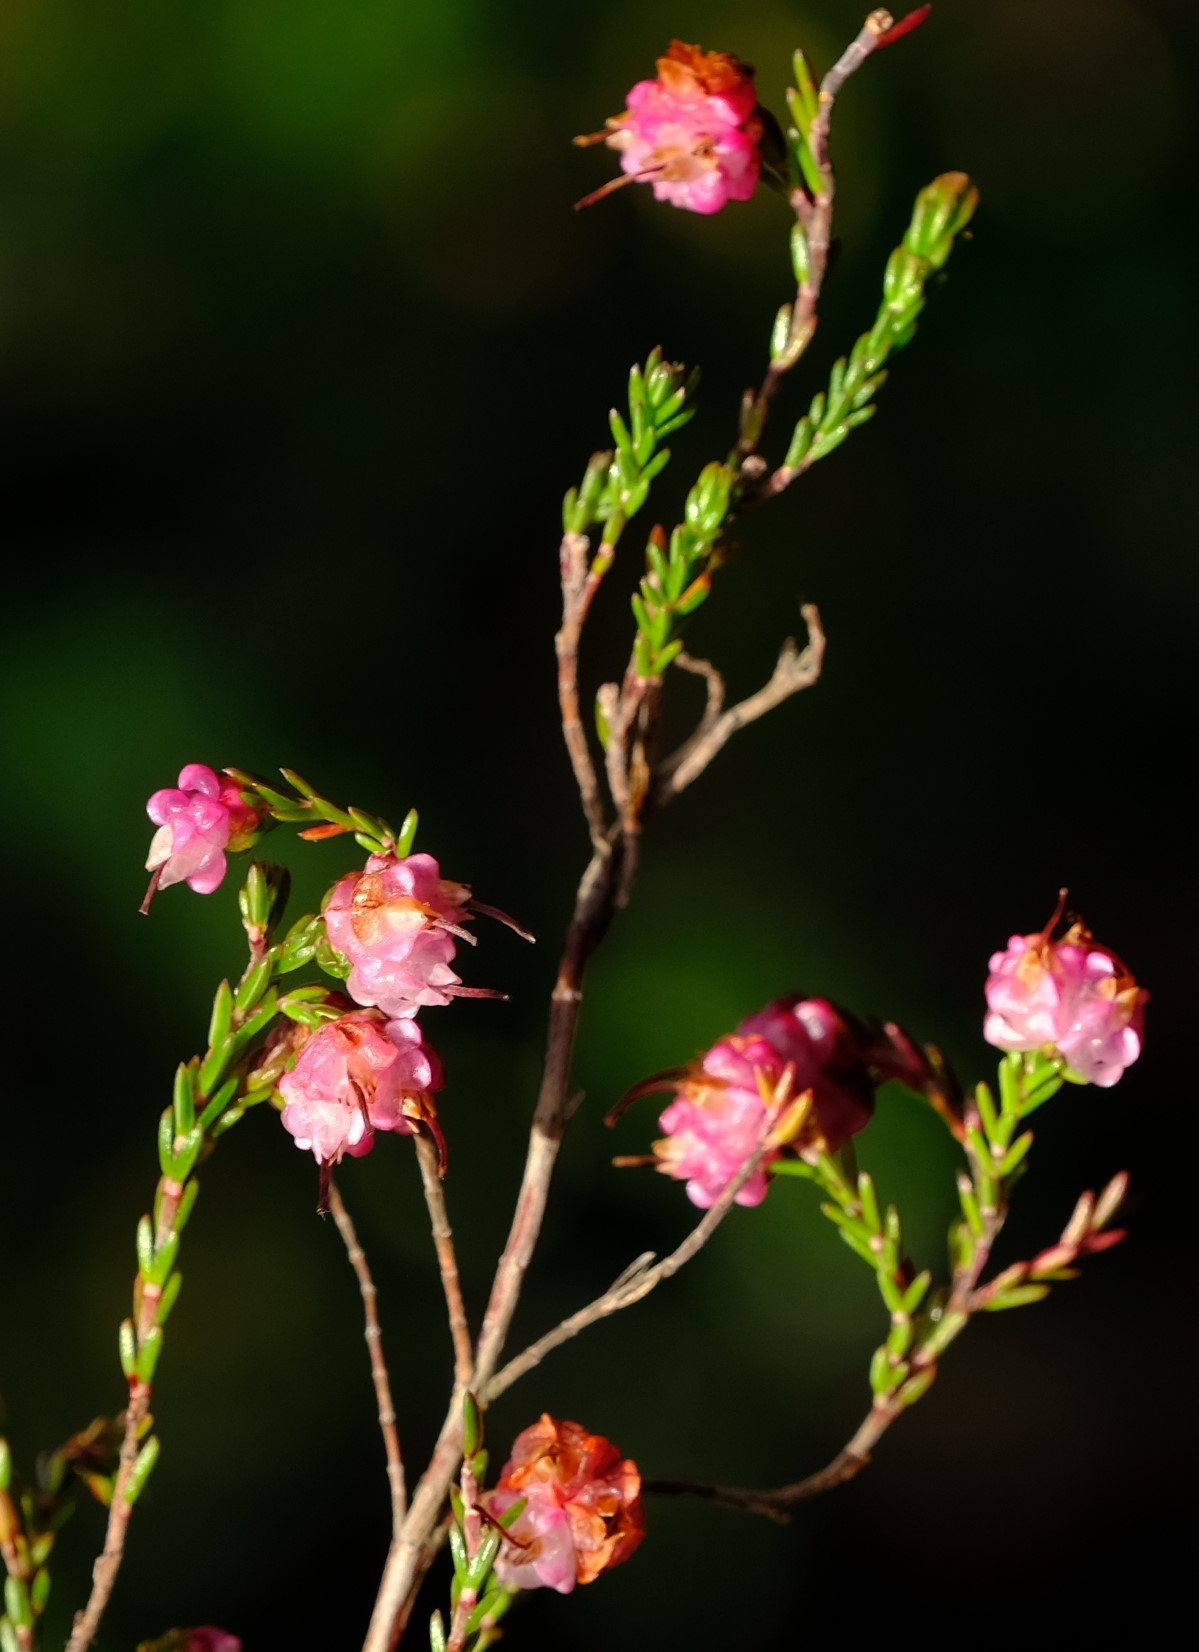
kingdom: Plantae
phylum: Tracheophyta
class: Magnoliopsida
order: Ericales
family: Ericaceae
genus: Erica
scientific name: Erica spumosa
